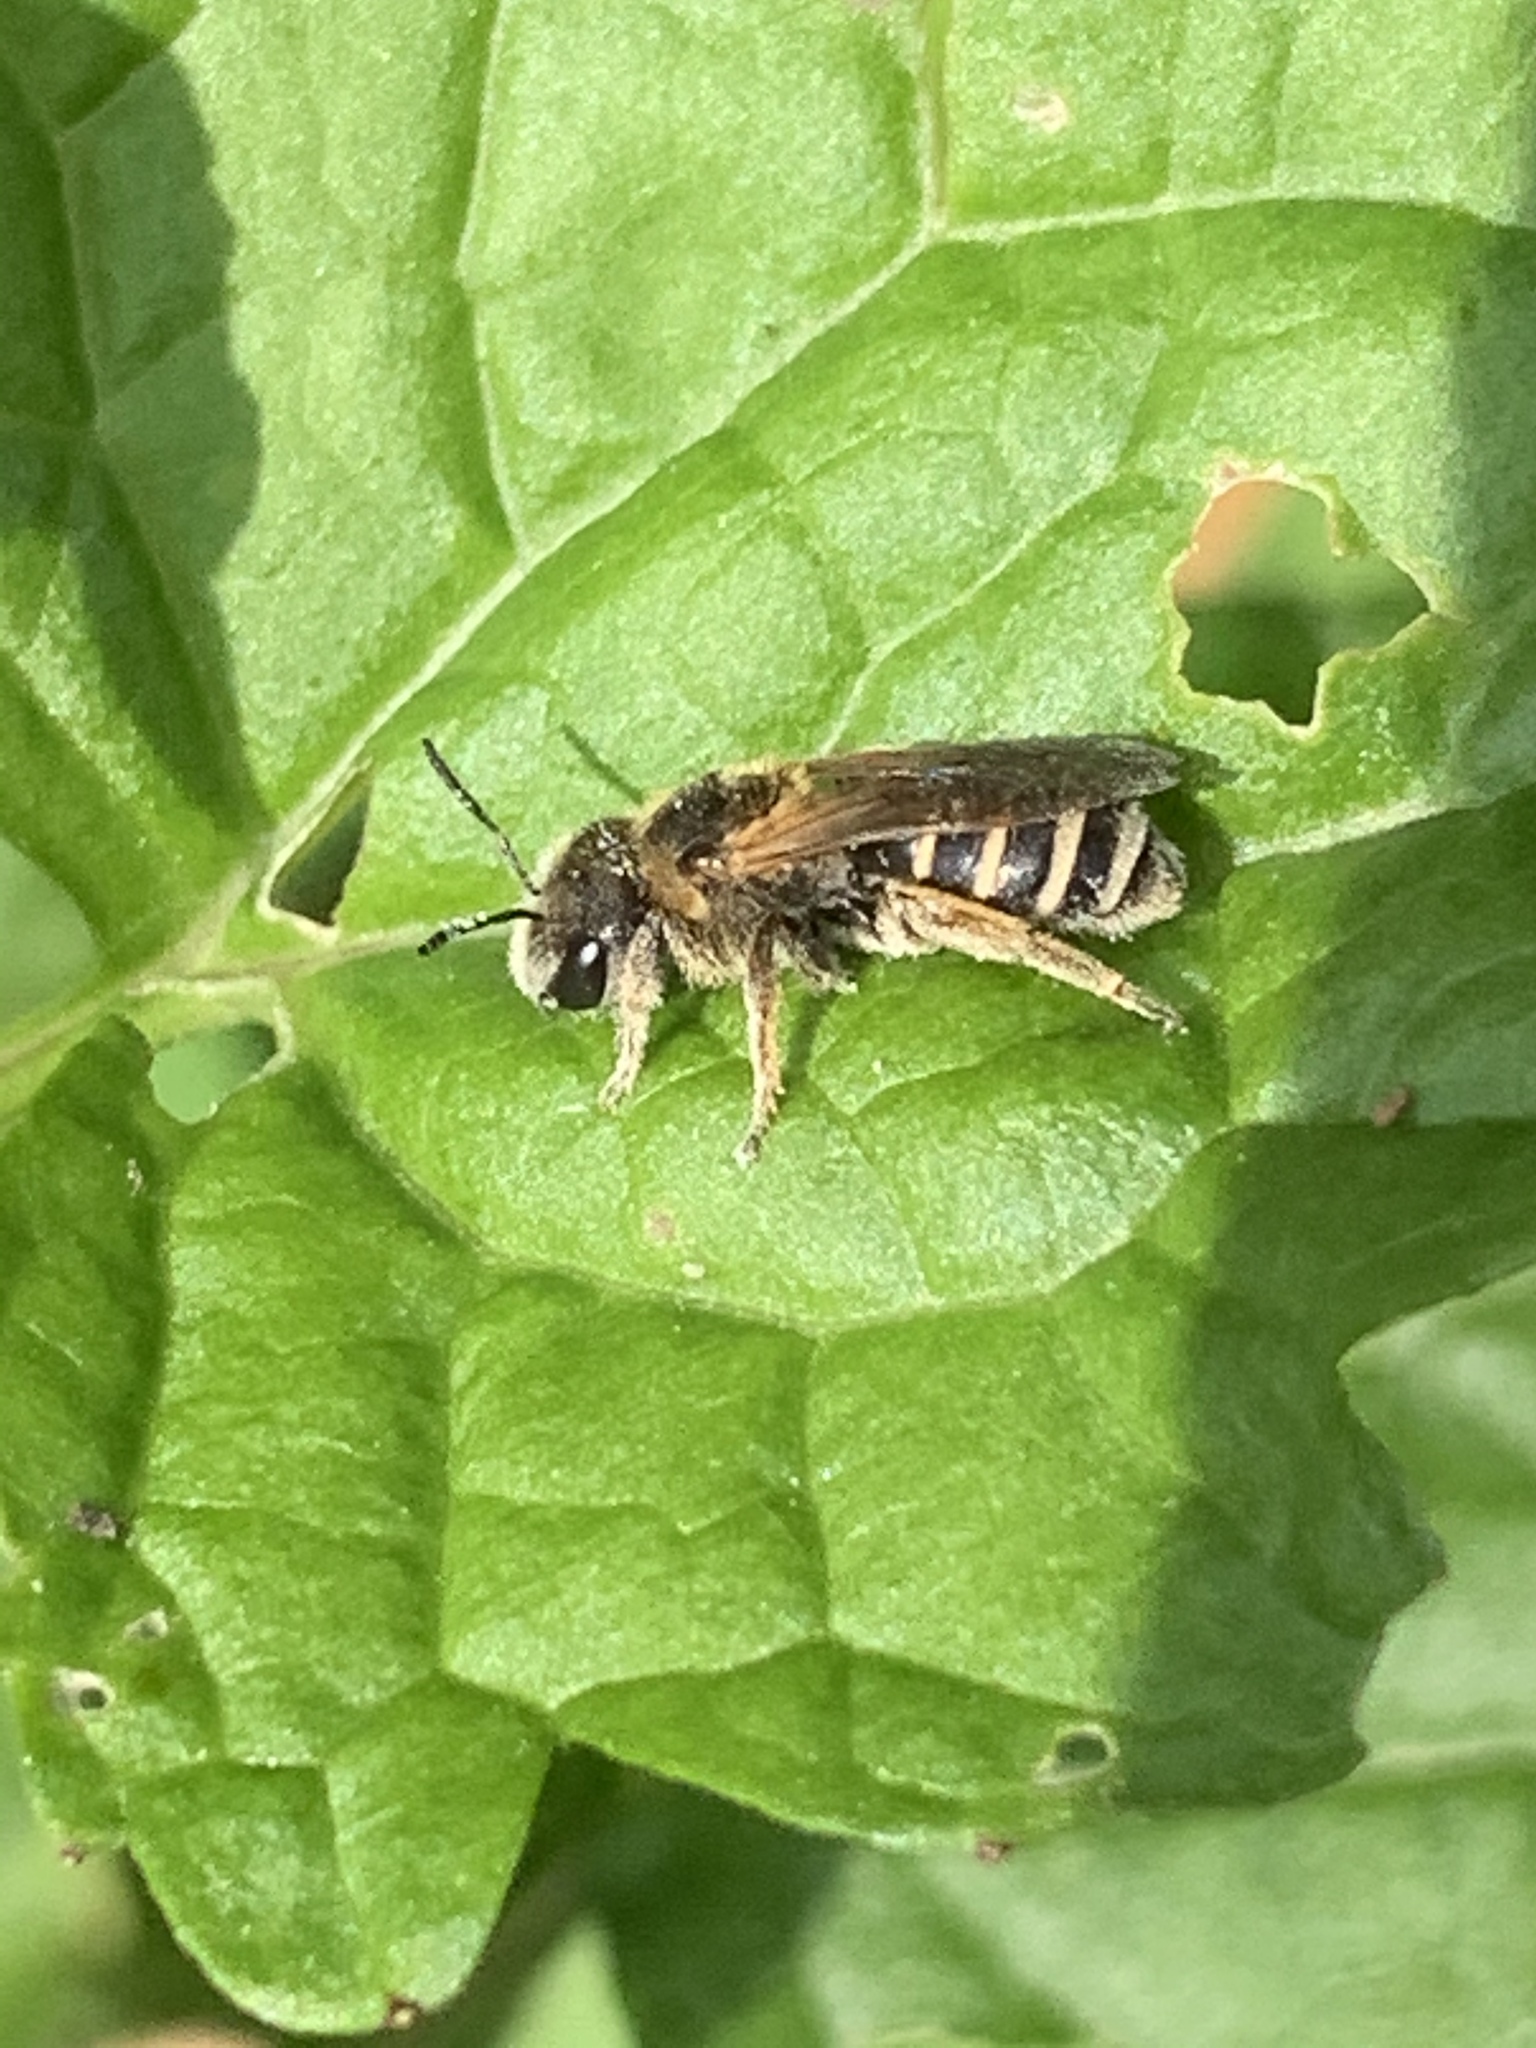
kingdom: Animalia
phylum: Arthropoda
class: Insecta
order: Hymenoptera
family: Halictidae
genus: Halictus
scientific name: Halictus ligatus
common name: Ligated furrow bee
